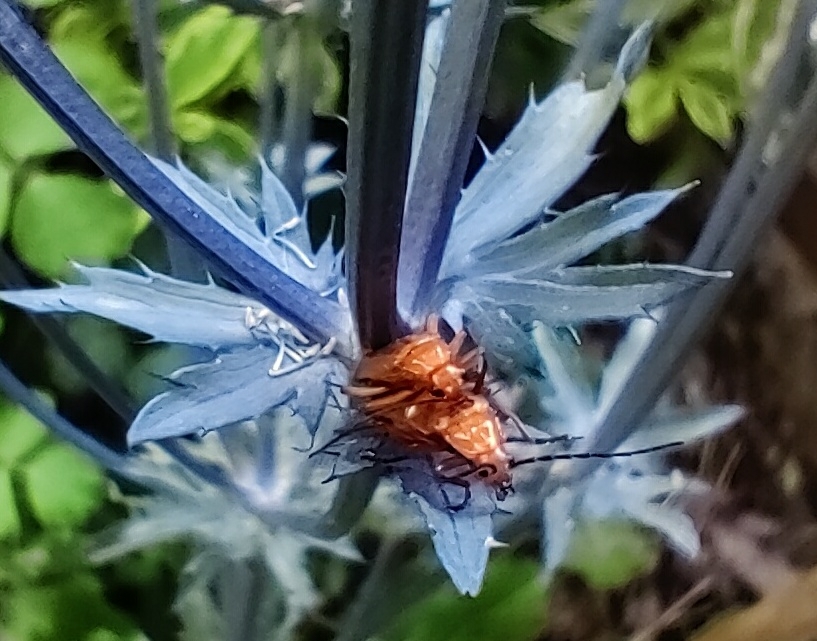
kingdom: Animalia
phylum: Arthropoda
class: Insecta
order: Coleoptera
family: Cantharidae
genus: Rhagonycha
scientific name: Rhagonycha fulva
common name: Common red soldier beetle
